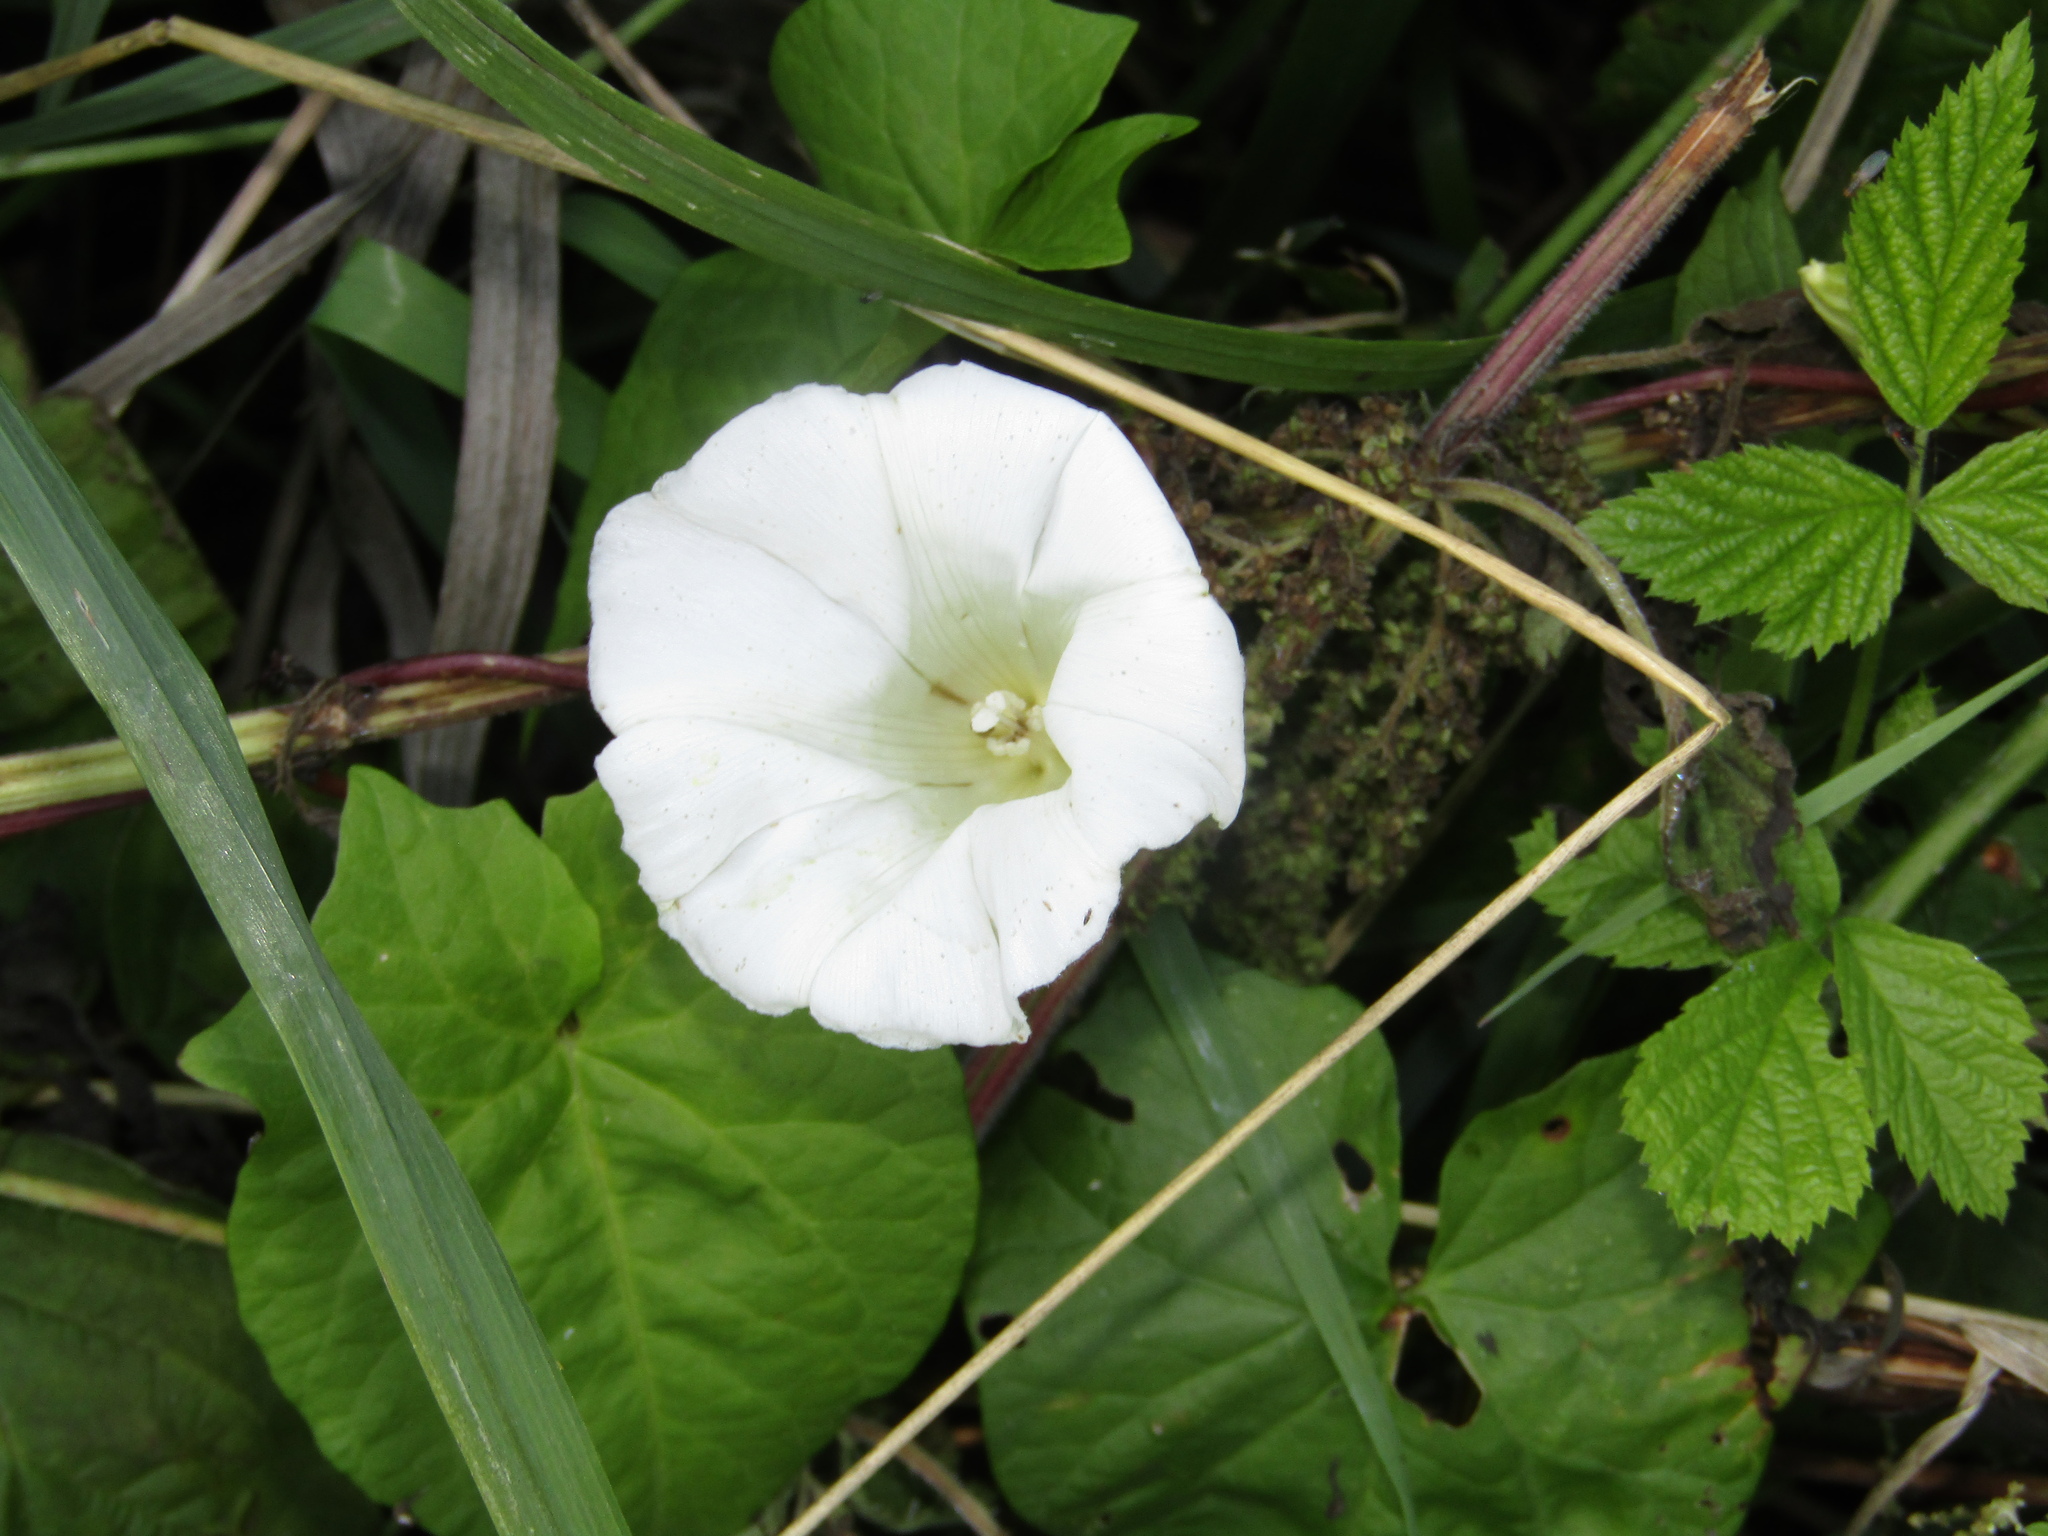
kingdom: Plantae
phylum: Tracheophyta
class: Magnoliopsida
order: Solanales
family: Convolvulaceae
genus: Calystegia
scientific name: Calystegia sepium
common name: Hedge bindweed
